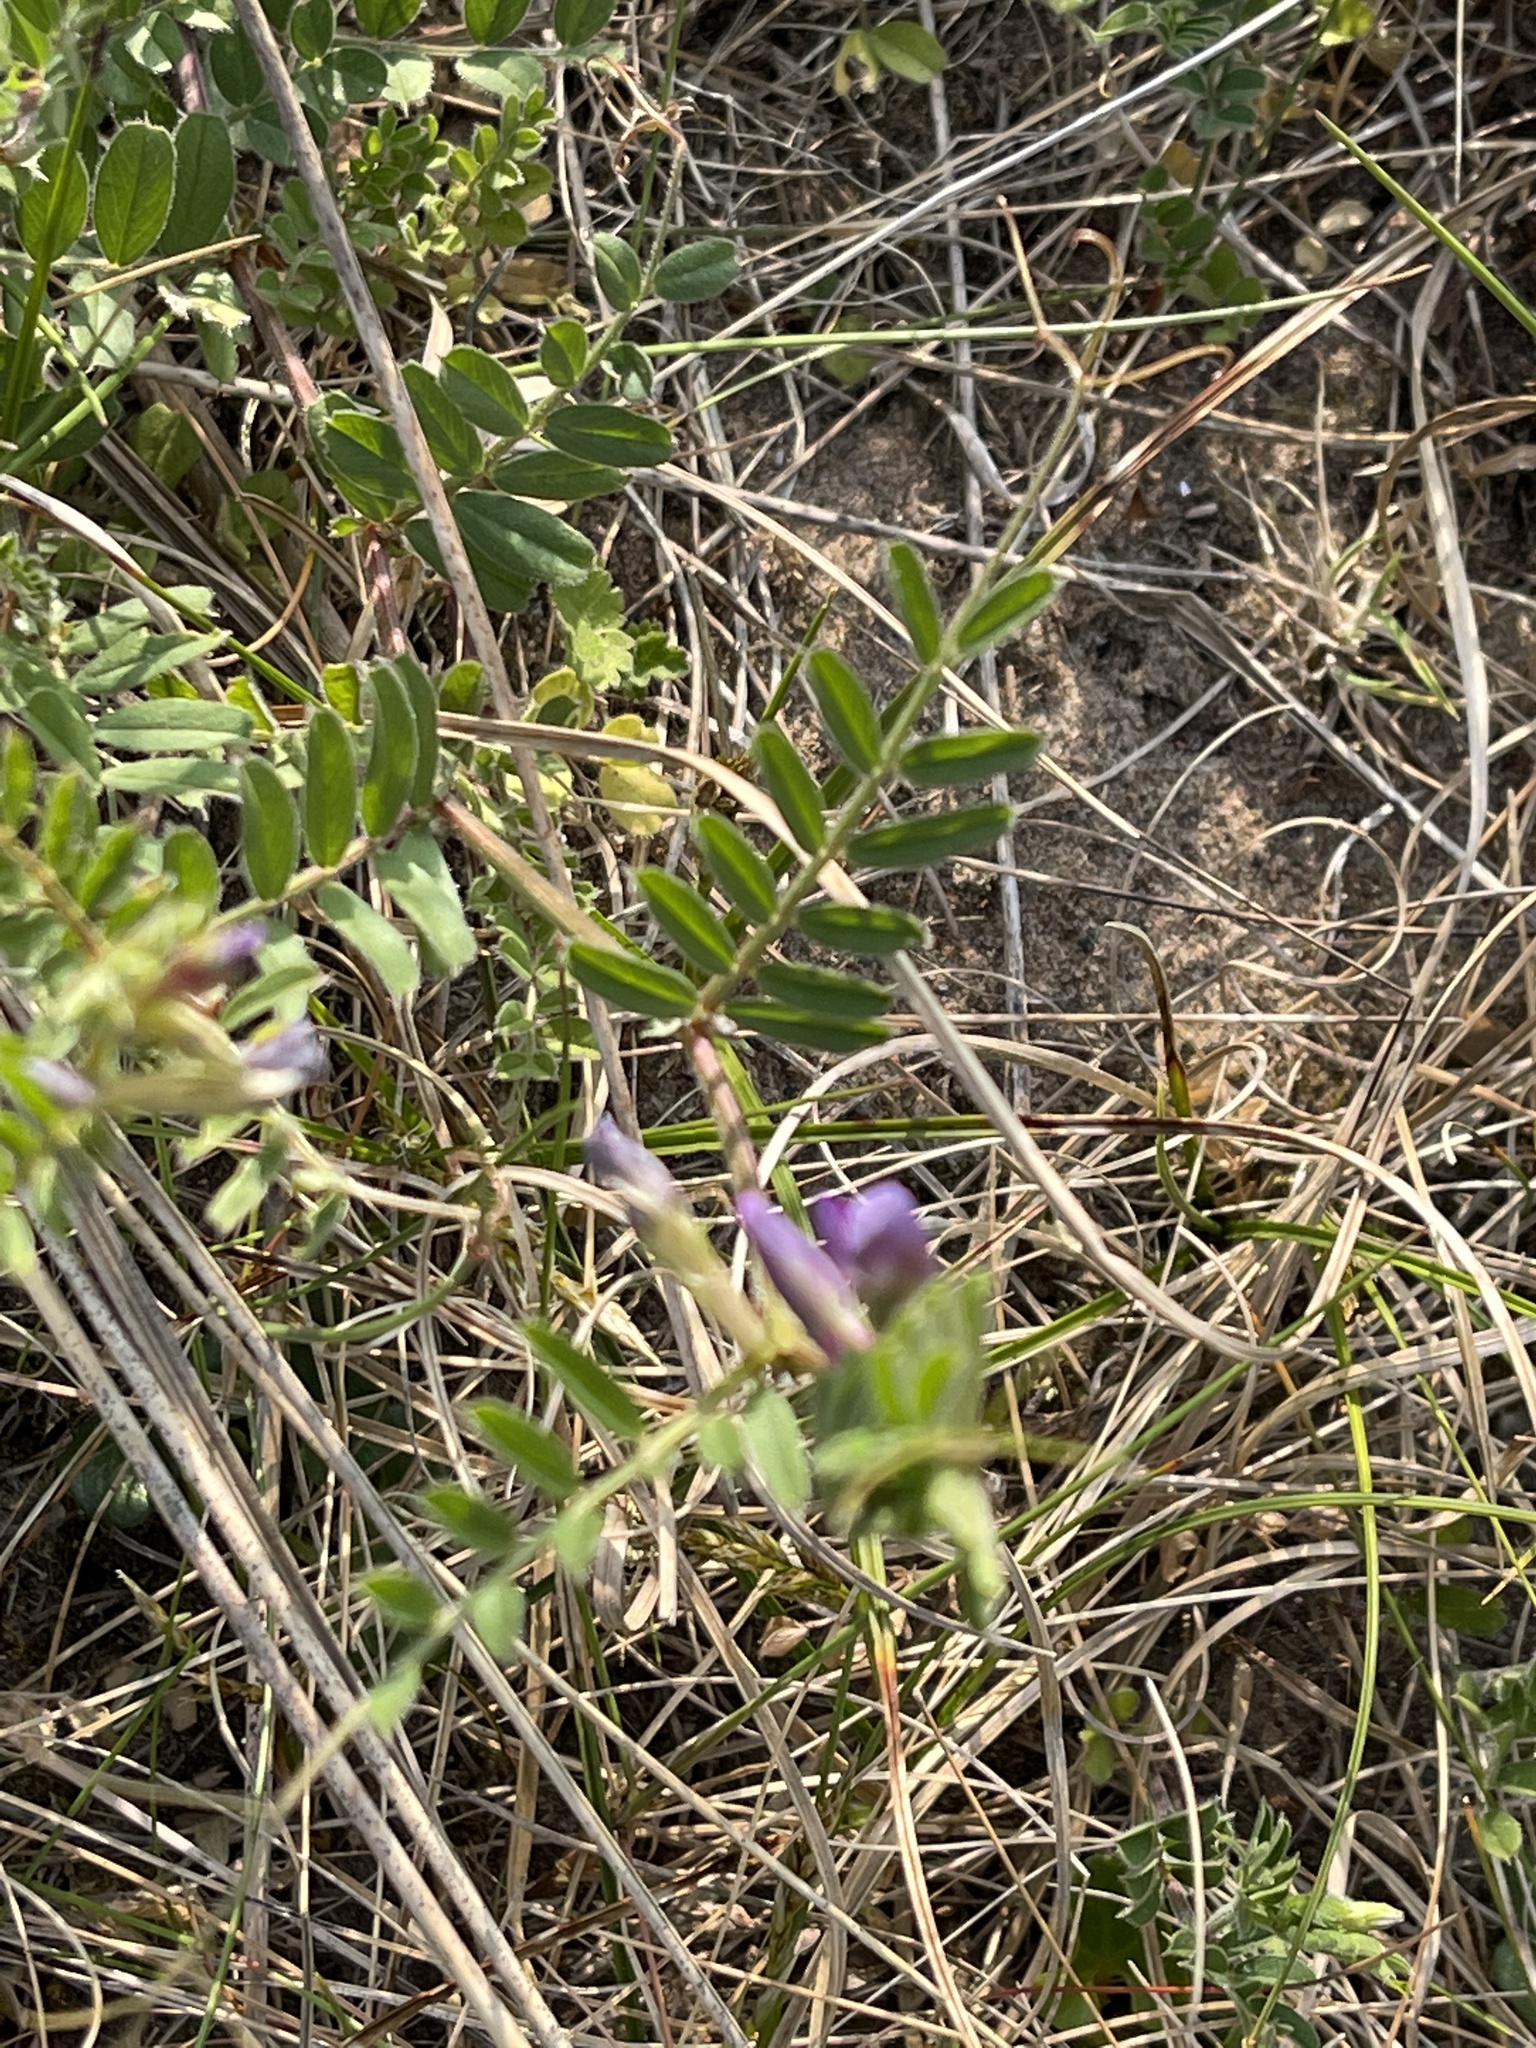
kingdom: Plantae
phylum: Tracheophyta
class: Magnoliopsida
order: Fabales
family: Fabaceae
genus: Vicia
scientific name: Vicia sativa
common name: Garden vetch
